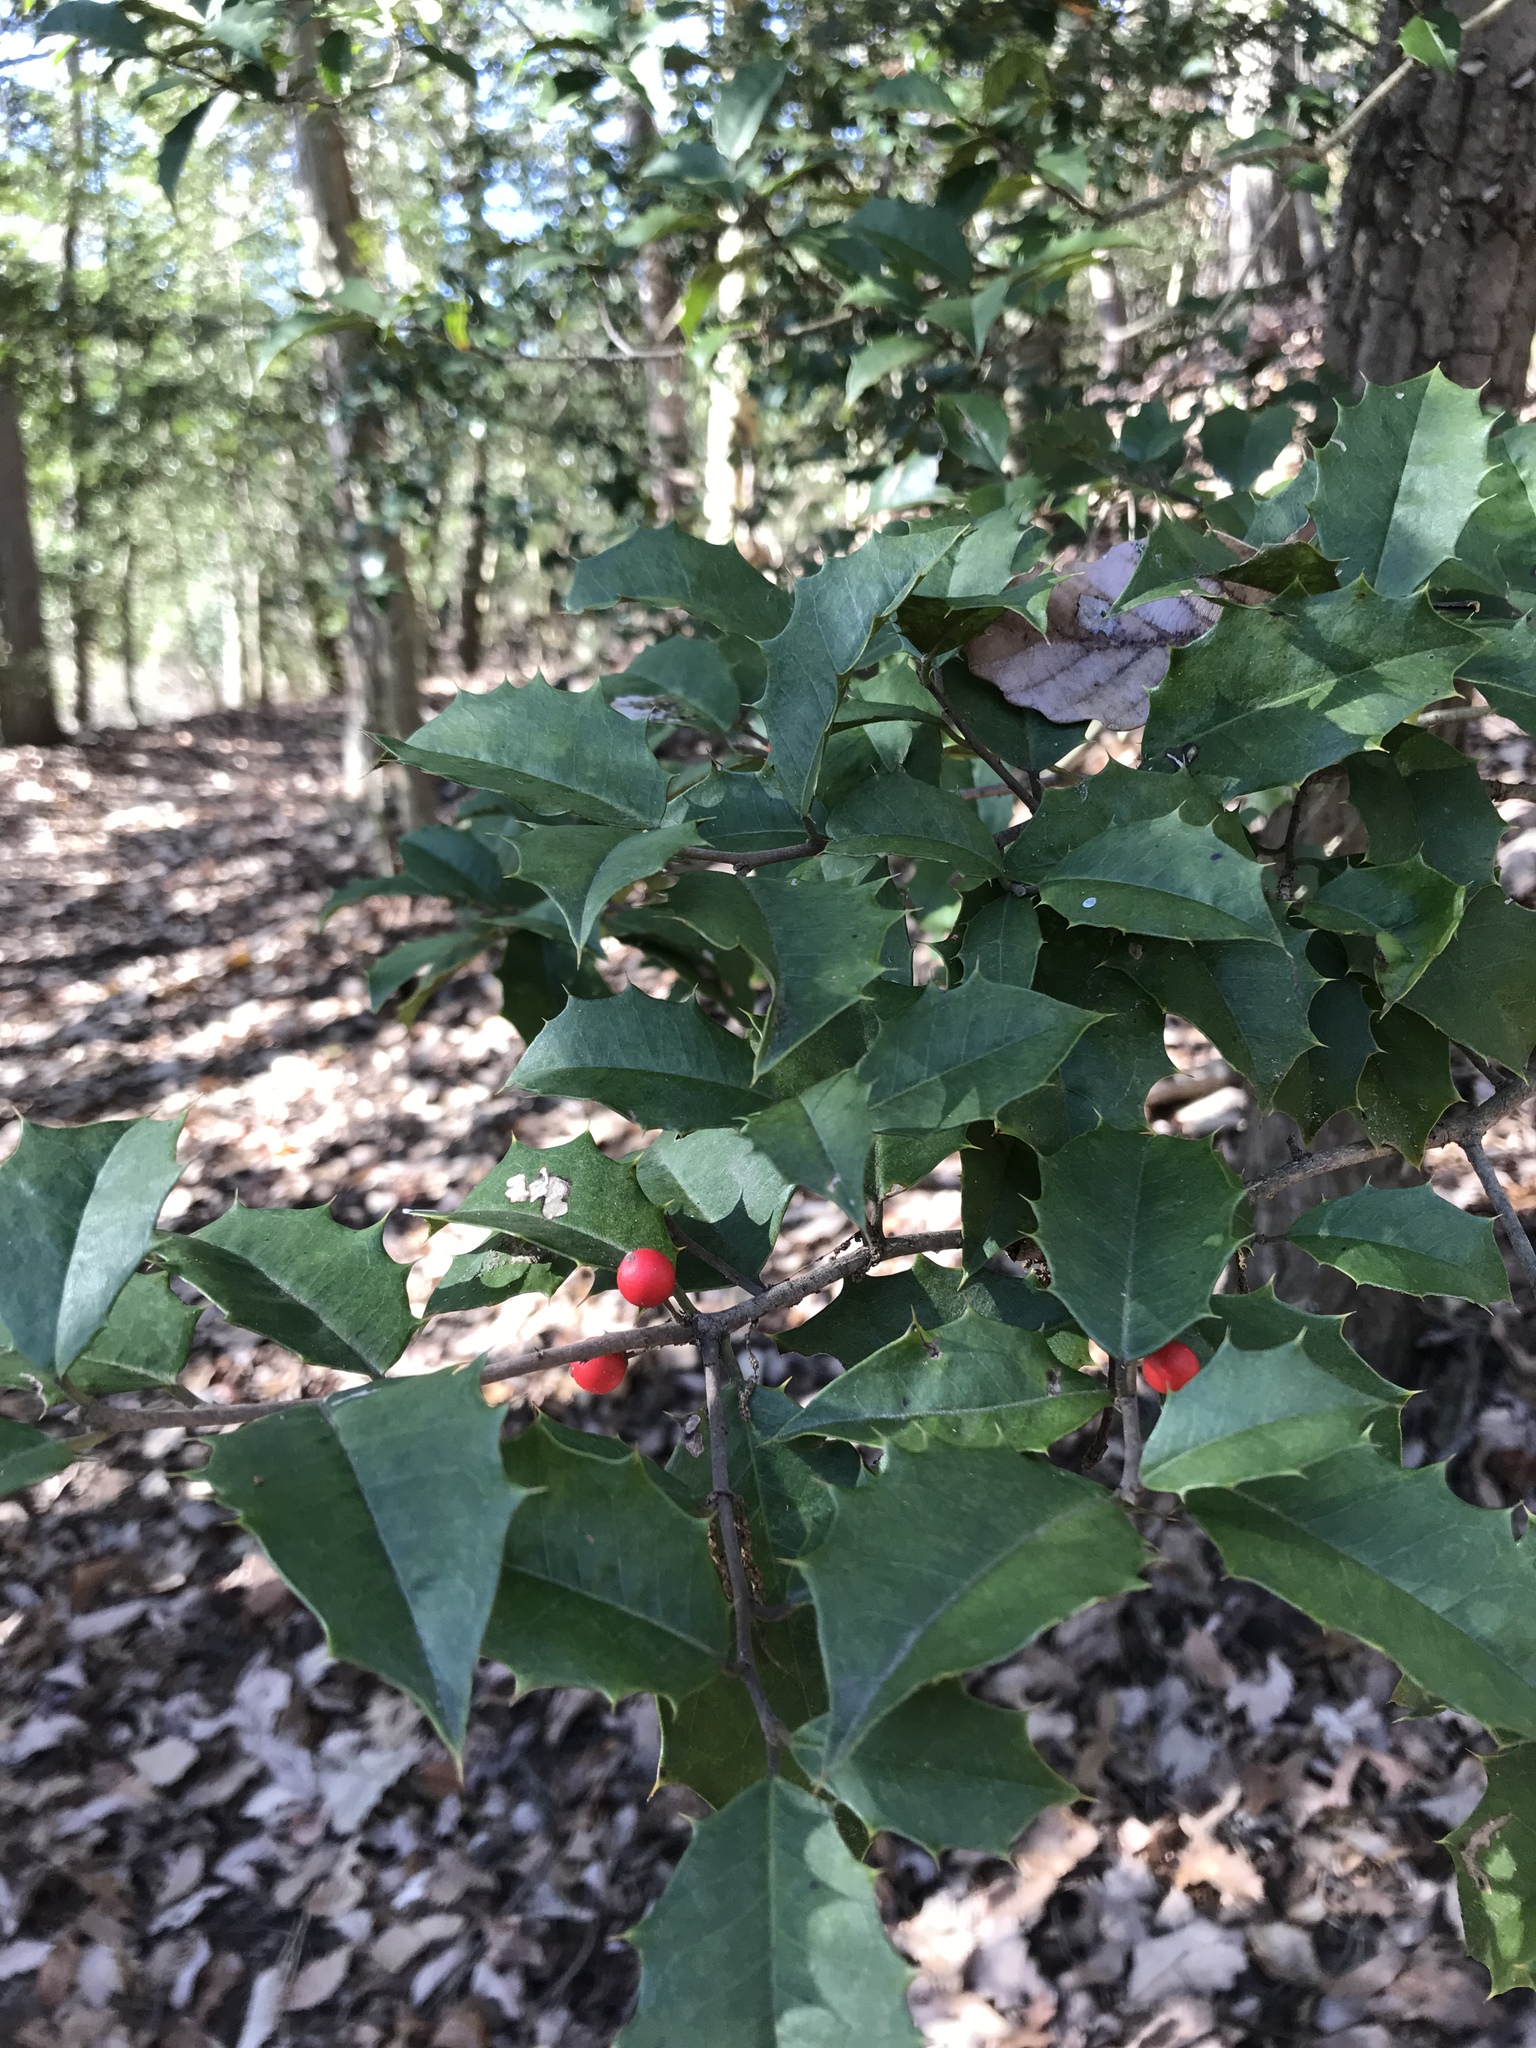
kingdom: Plantae
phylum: Tracheophyta
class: Magnoliopsida
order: Aquifoliales
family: Aquifoliaceae
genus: Ilex
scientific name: Ilex opaca
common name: American holly
